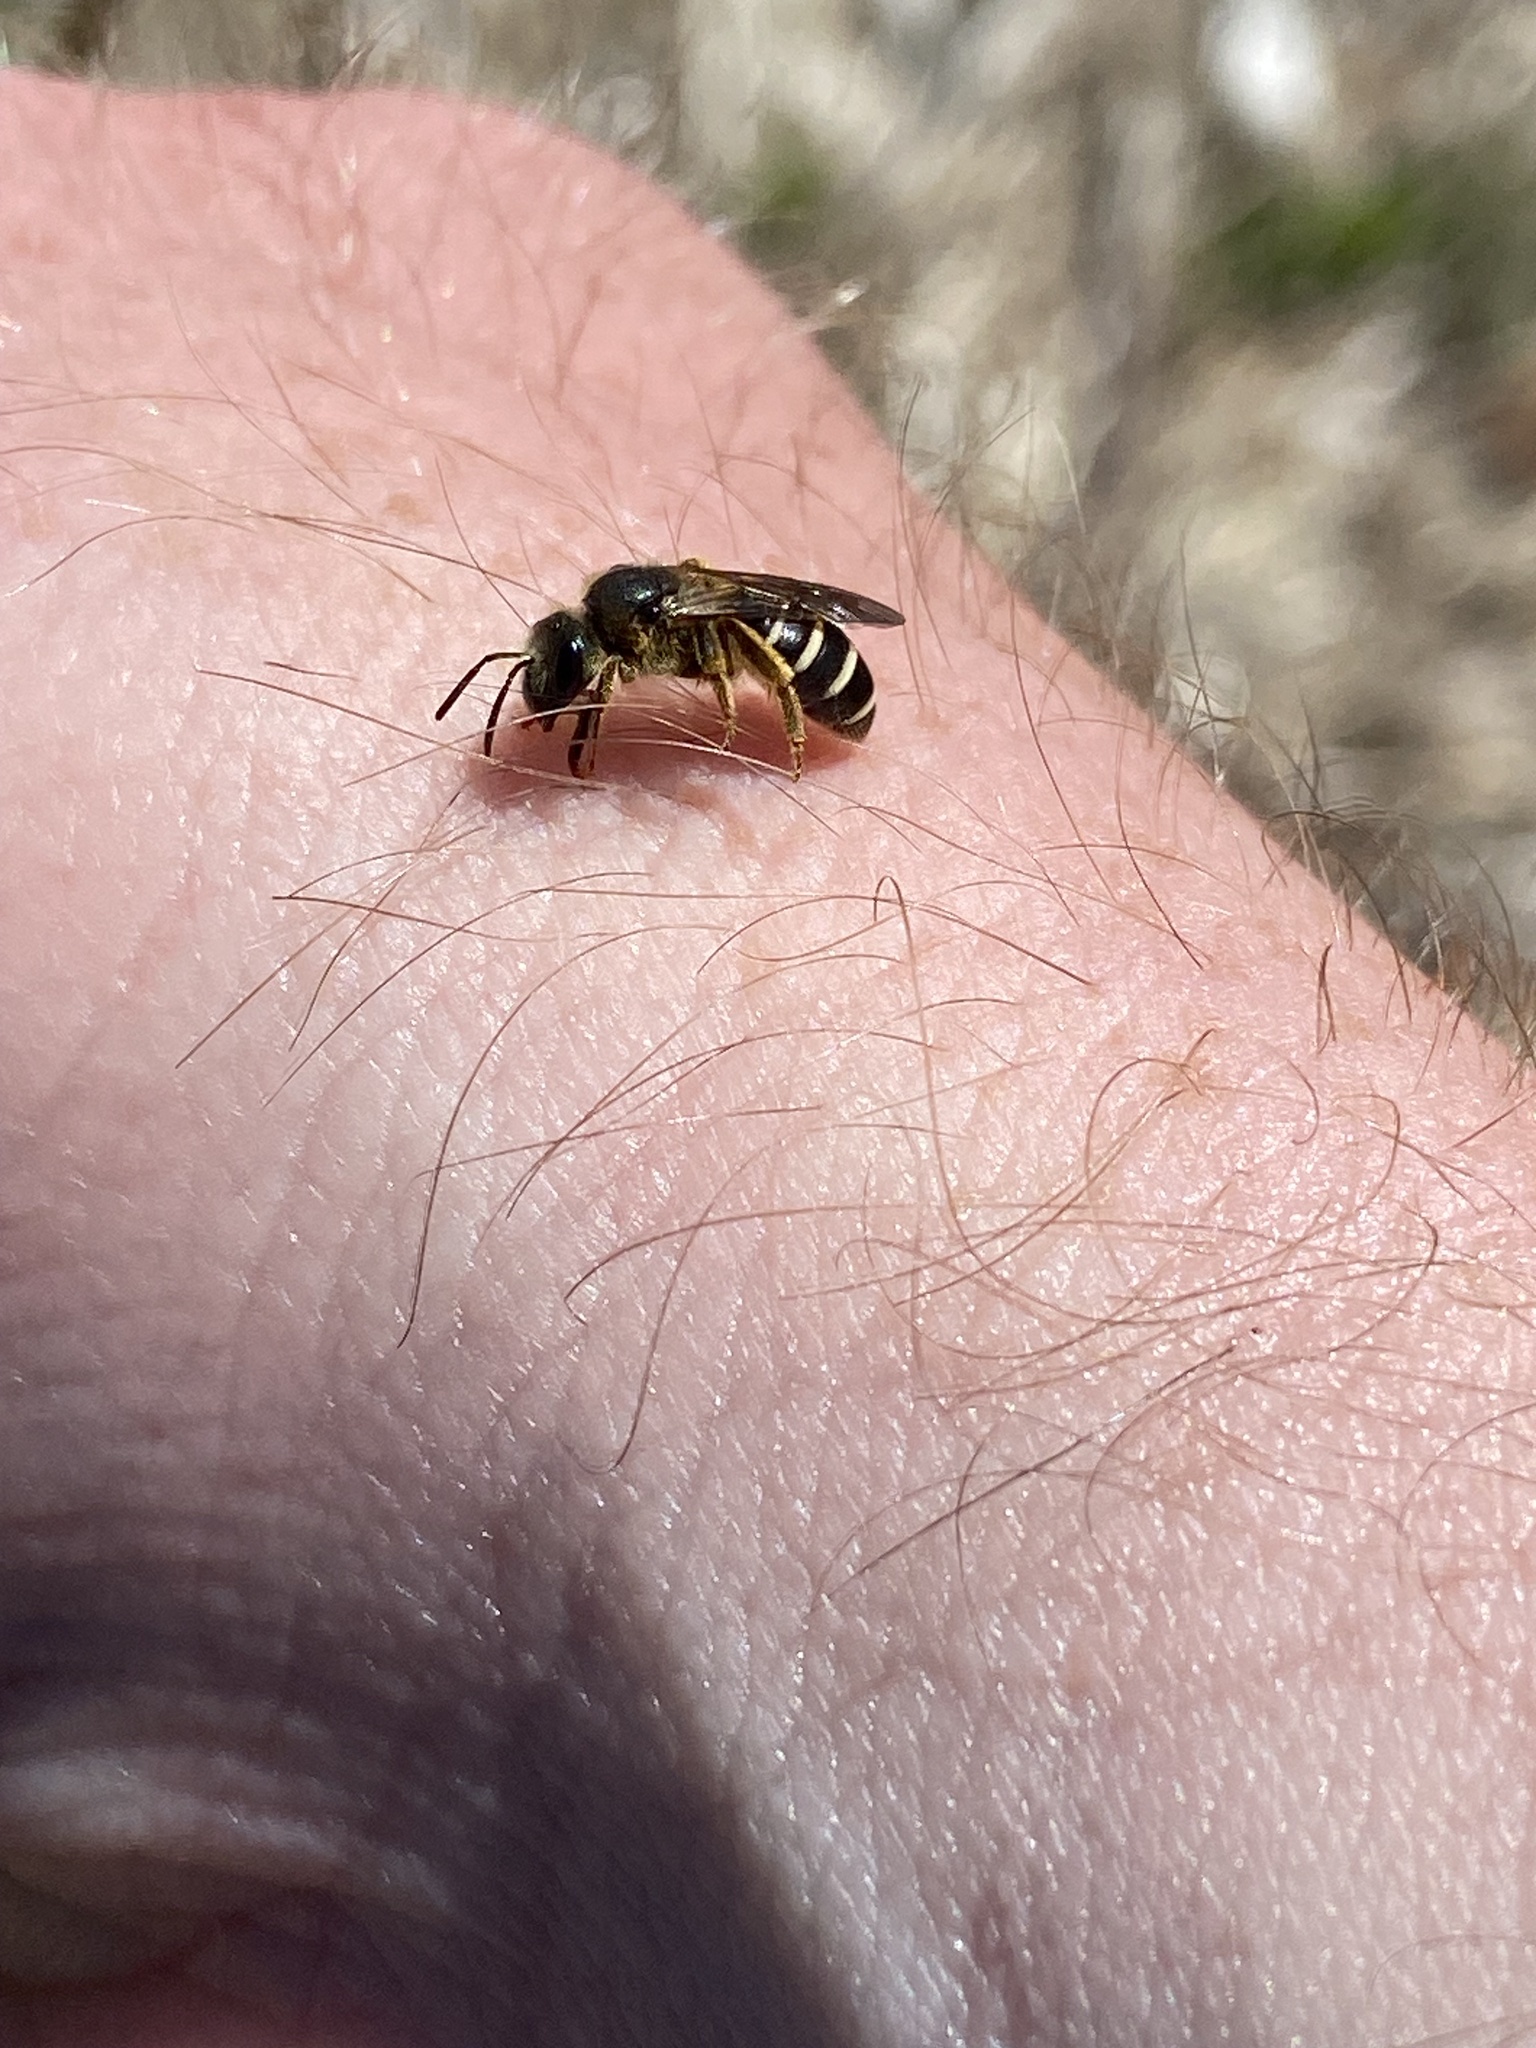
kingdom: Animalia
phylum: Arthropoda
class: Insecta
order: Hymenoptera
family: Halictidae
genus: Halictus
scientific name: Halictus rubicundus
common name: Orange-legged furrow bee
